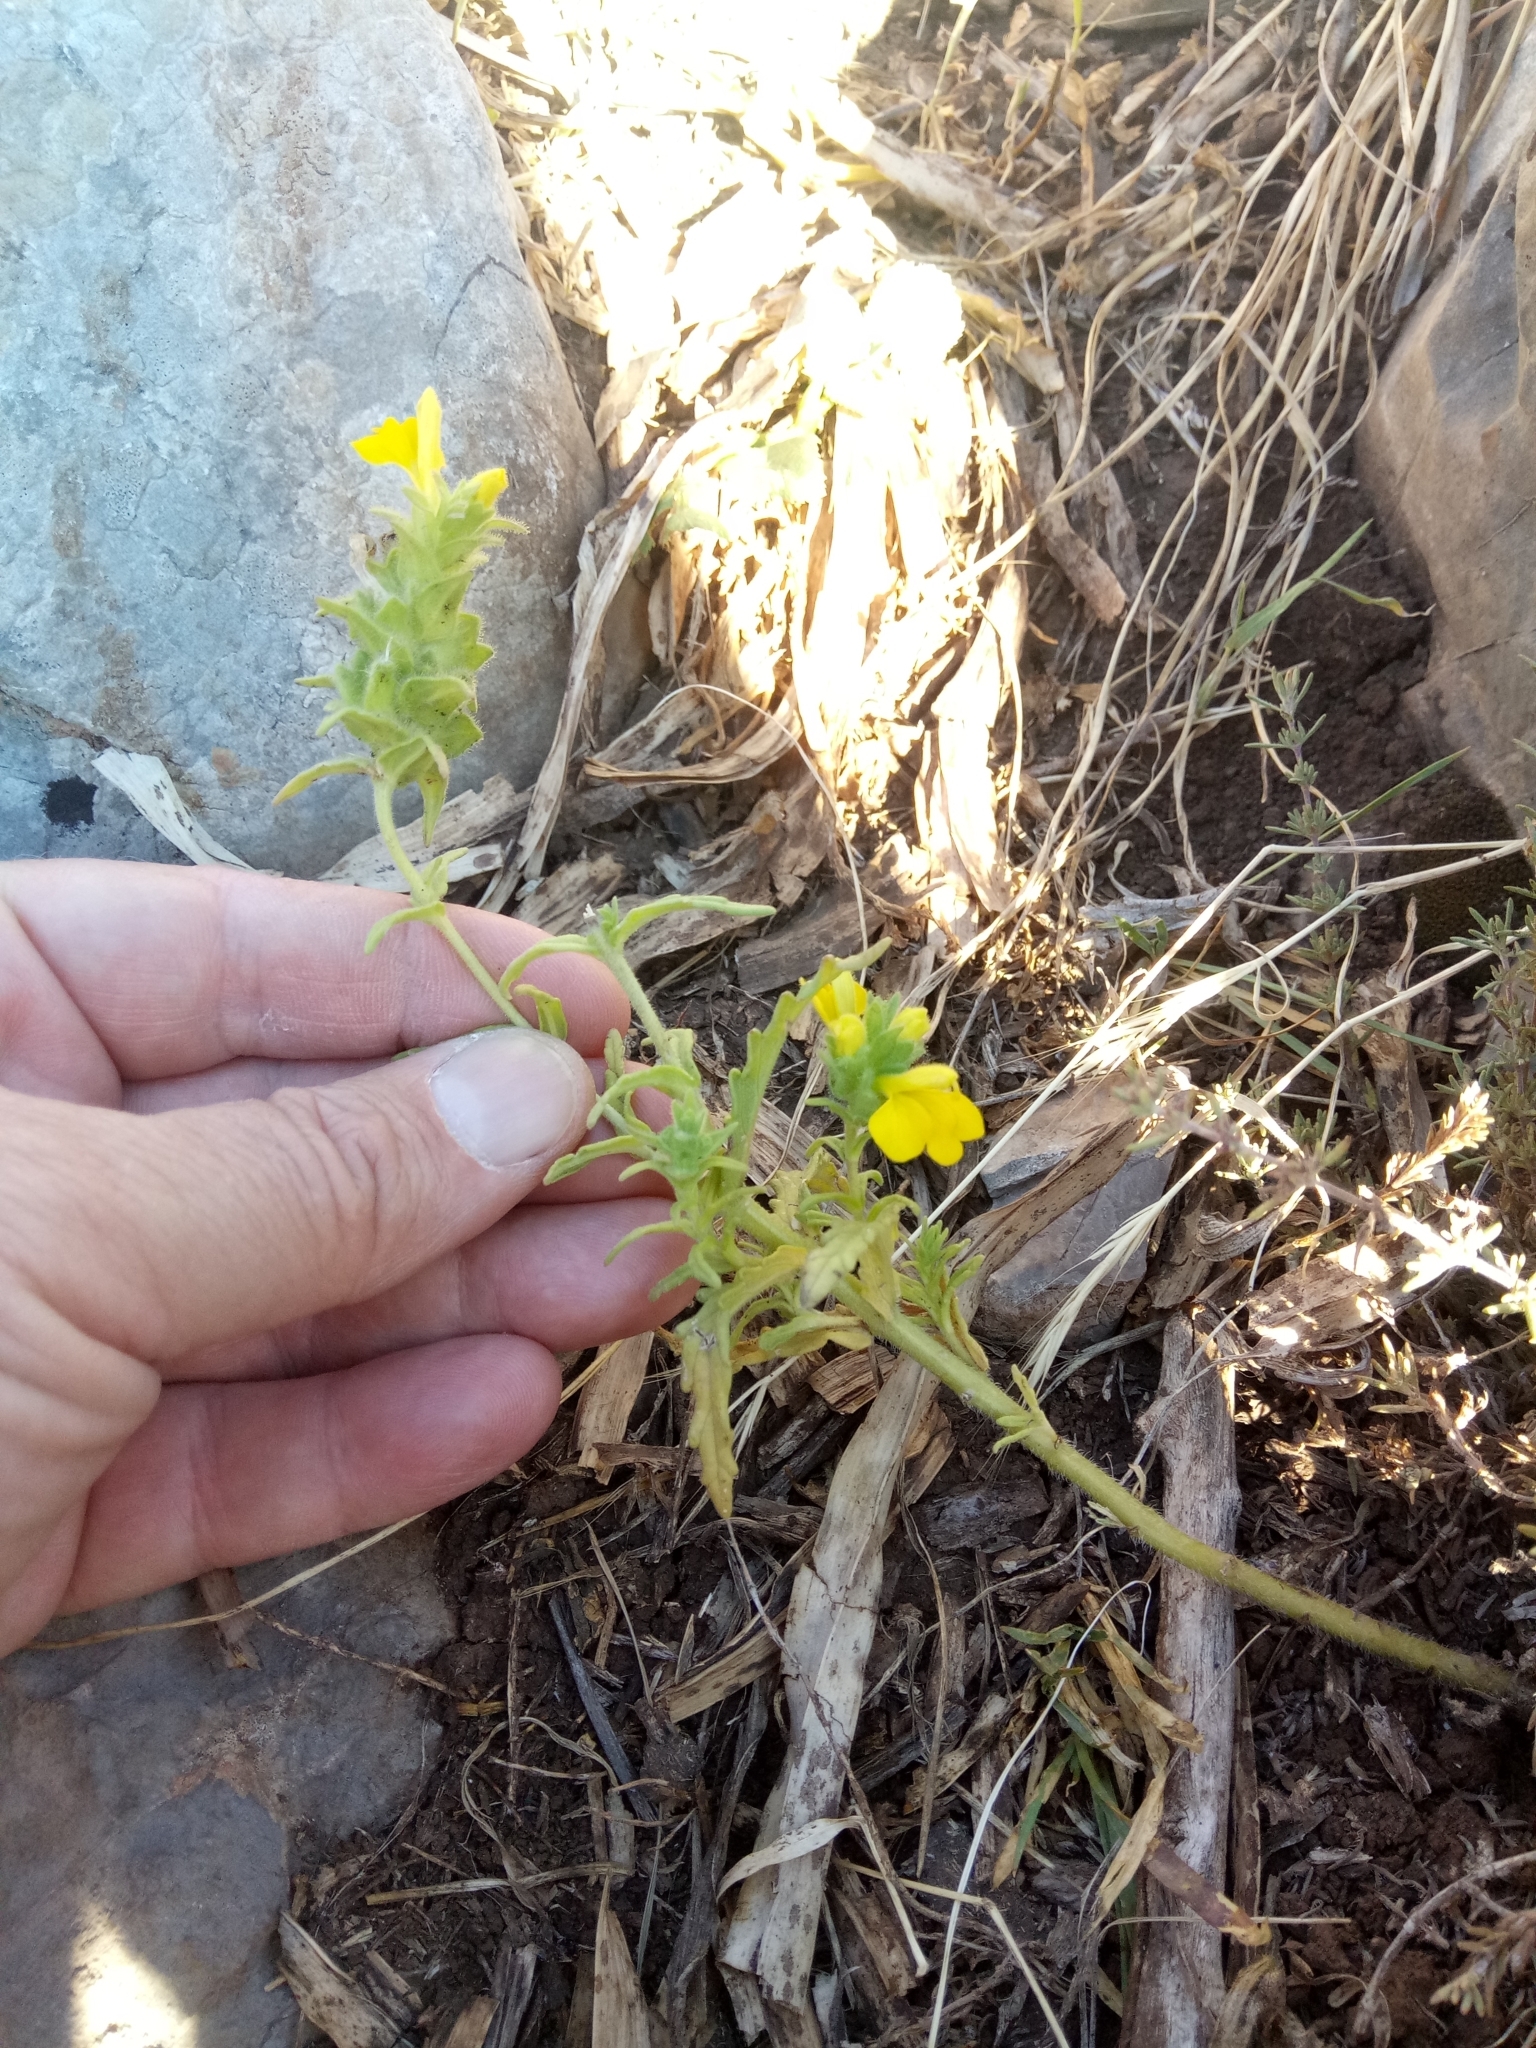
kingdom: Plantae
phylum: Tracheophyta
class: Magnoliopsida
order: Lamiales
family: Orobanchaceae
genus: Bellardia
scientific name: Bellardia trixago
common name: Mediterranean lineseed
